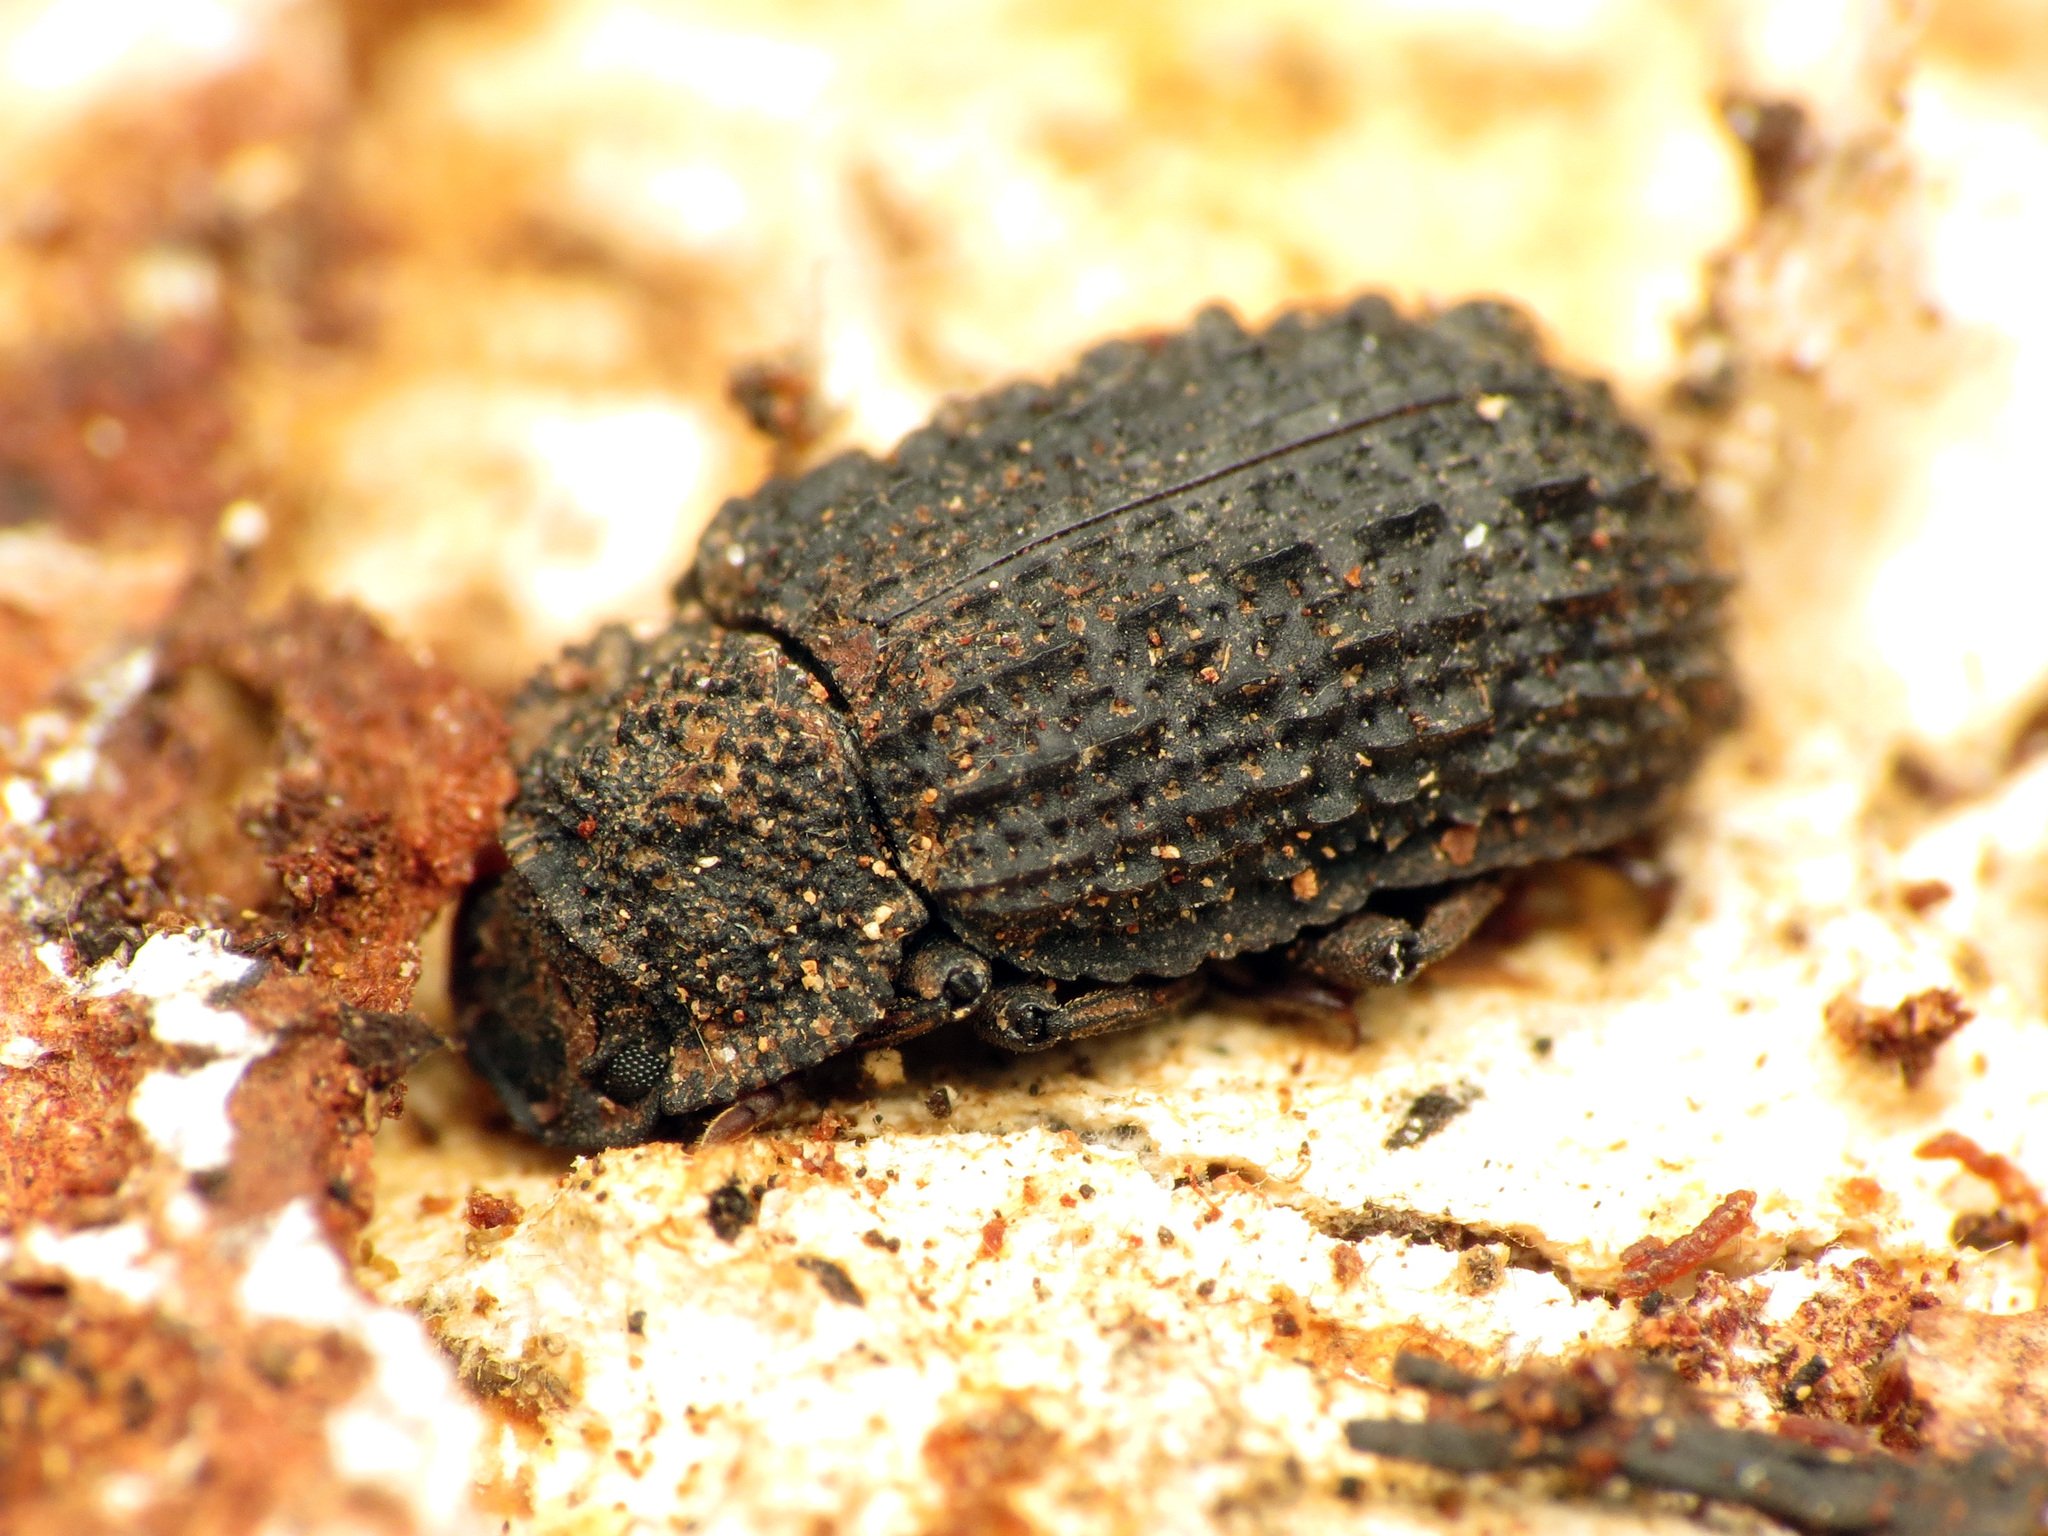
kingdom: Animalia
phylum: Arthropoda
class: Insecta
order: Coleoptera
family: Tenebrionidae
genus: Bolitophagus
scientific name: Bolitophagus corticola
